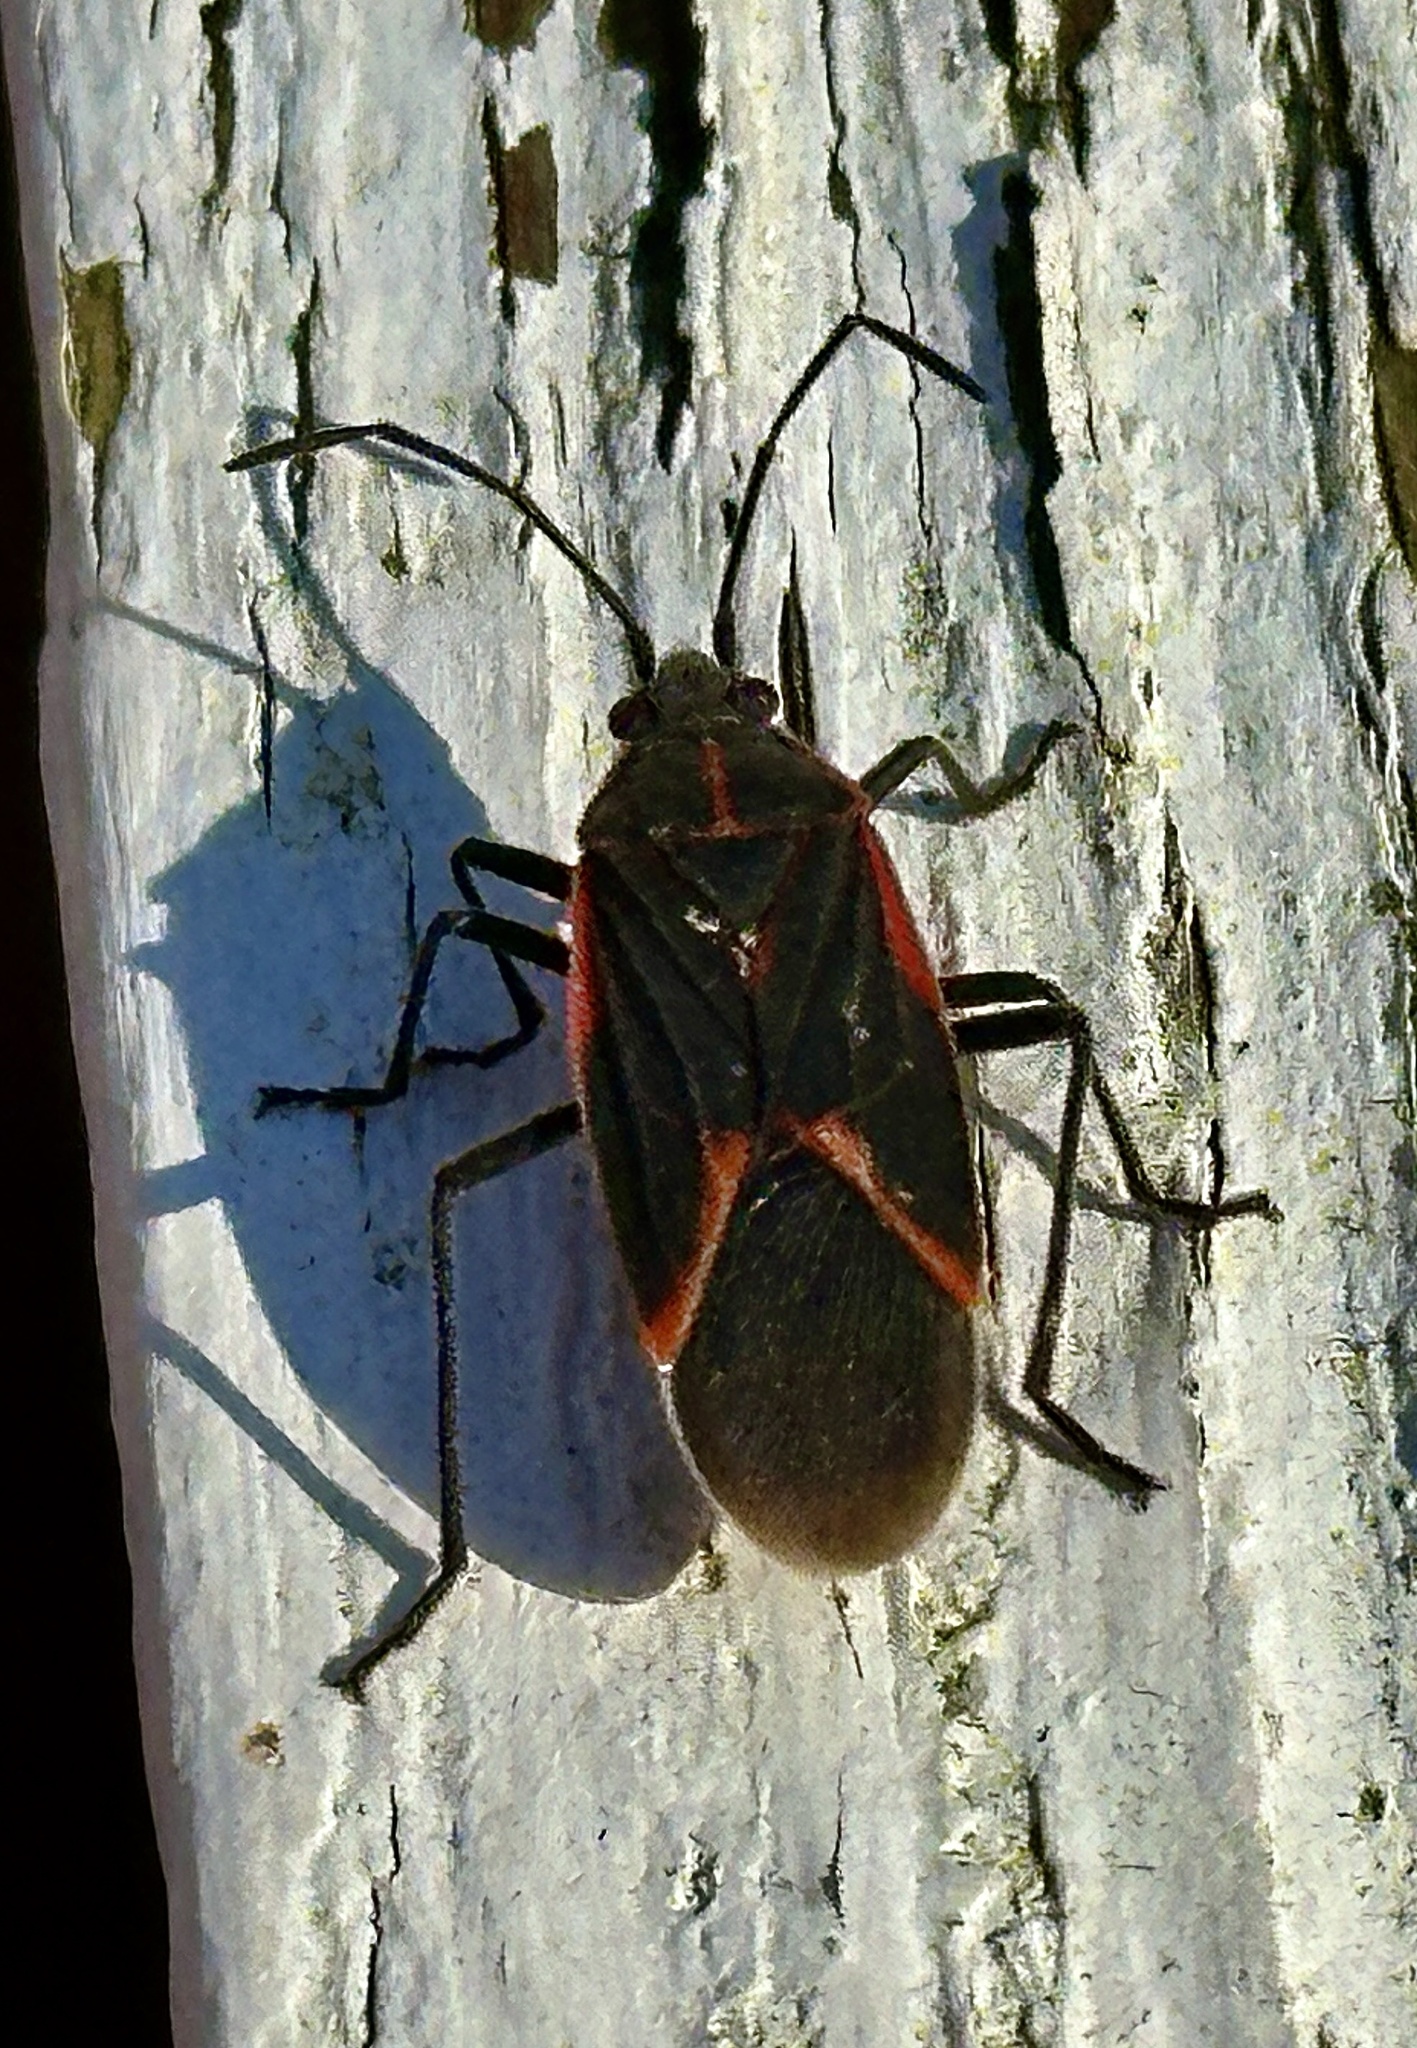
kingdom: Animalia
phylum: Arthropoda
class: Insecta
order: Hemiptera
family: Rhopalidae
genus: Boisea
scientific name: Boisea trivittata
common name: Boxelder bug
